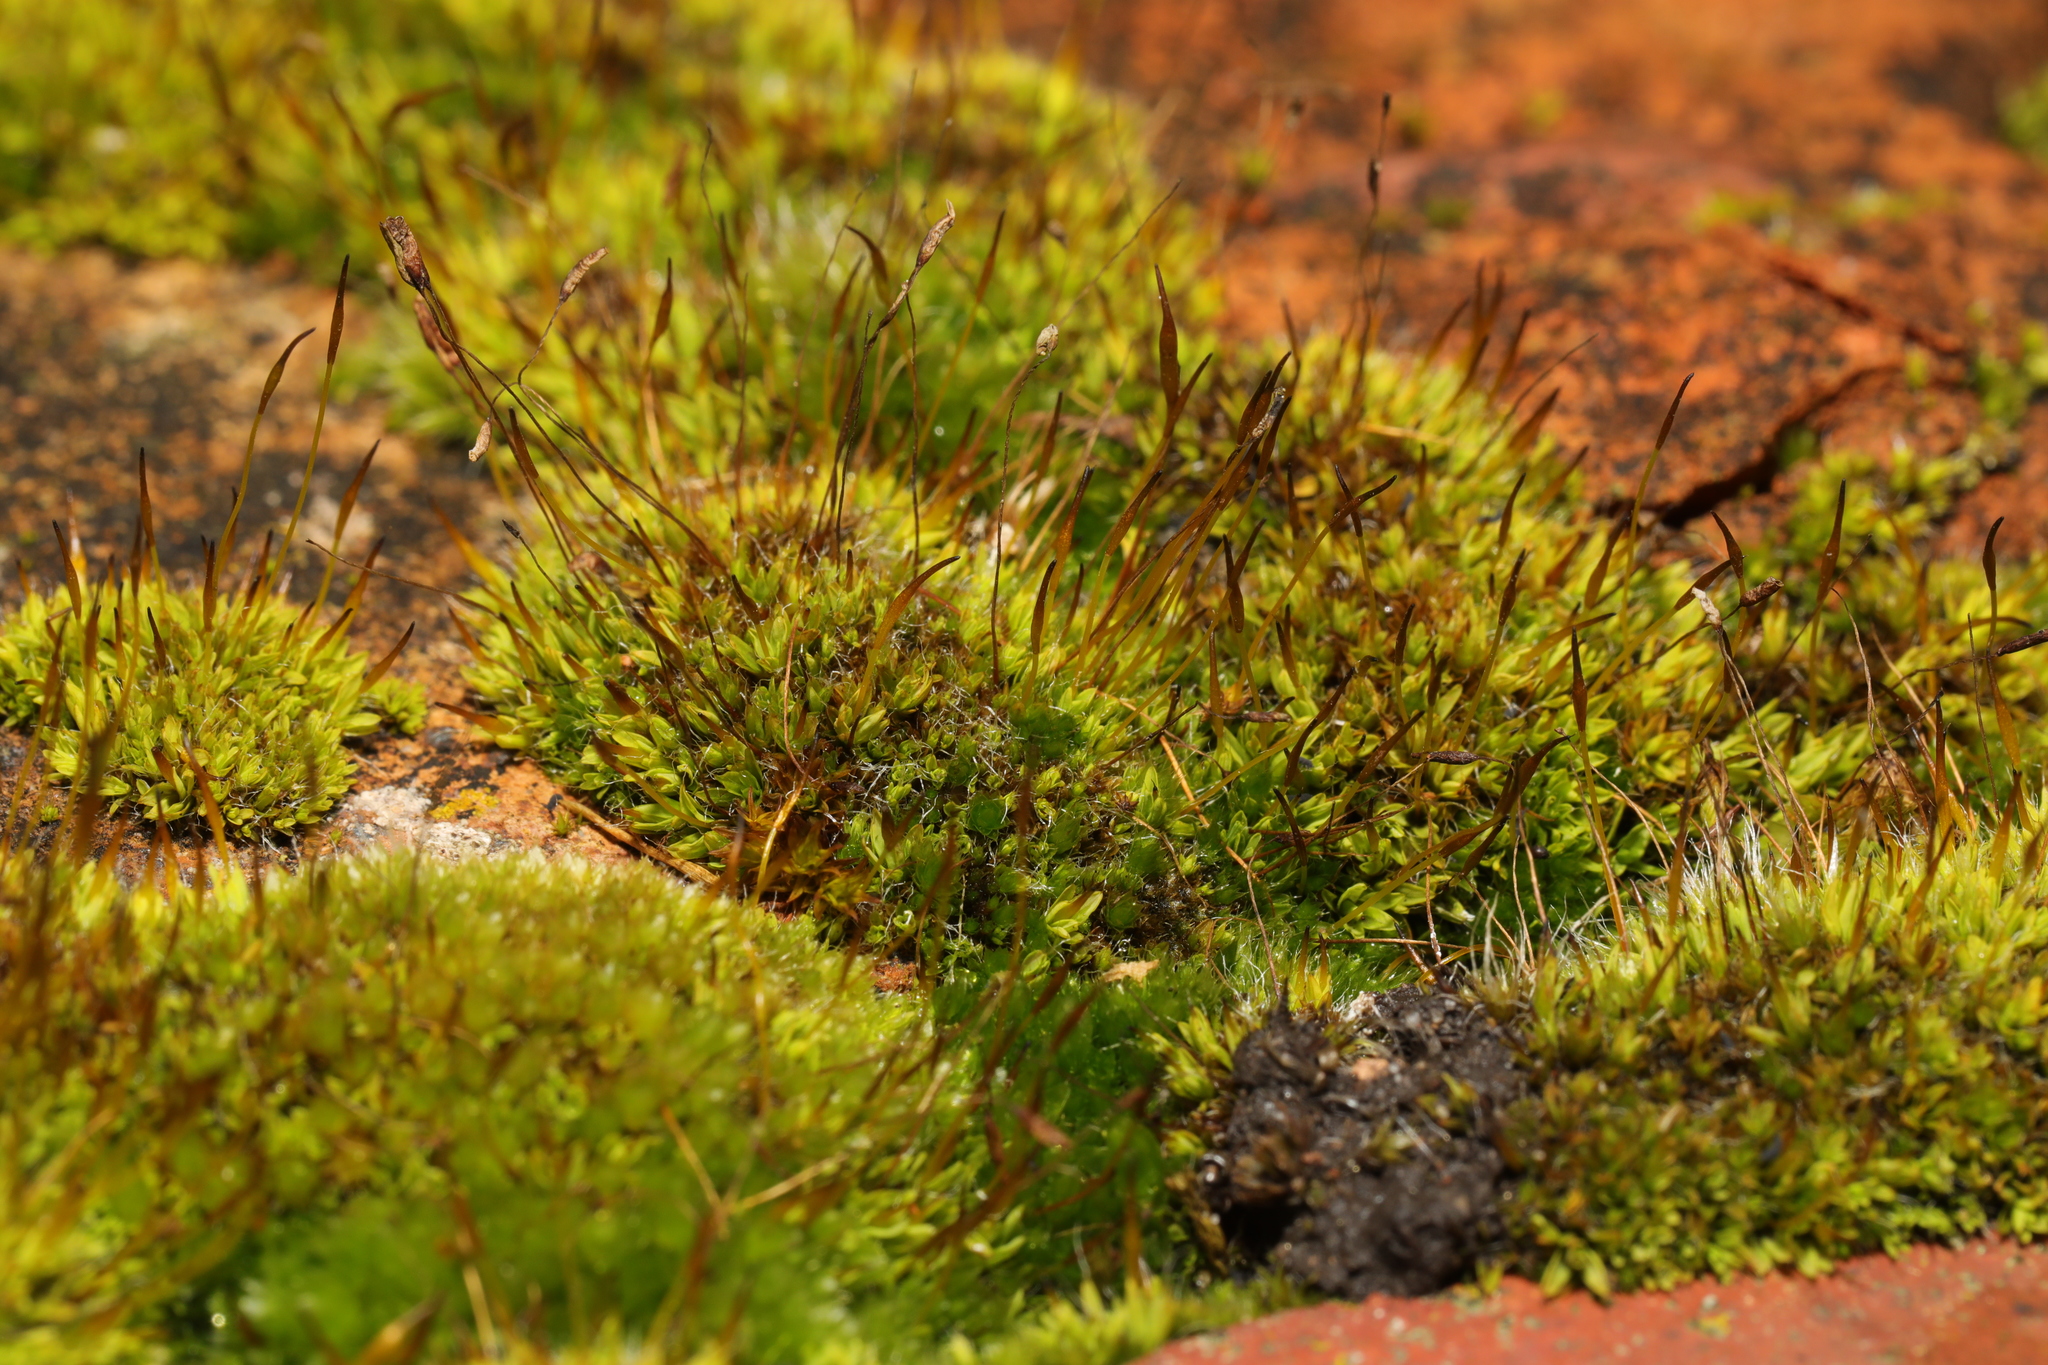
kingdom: Plantae
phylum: Bryophyta
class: Bryopsida
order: Pottiales
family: Pottiaceae
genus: Tortula
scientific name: Tortula muralis
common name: Wall screw-moss
